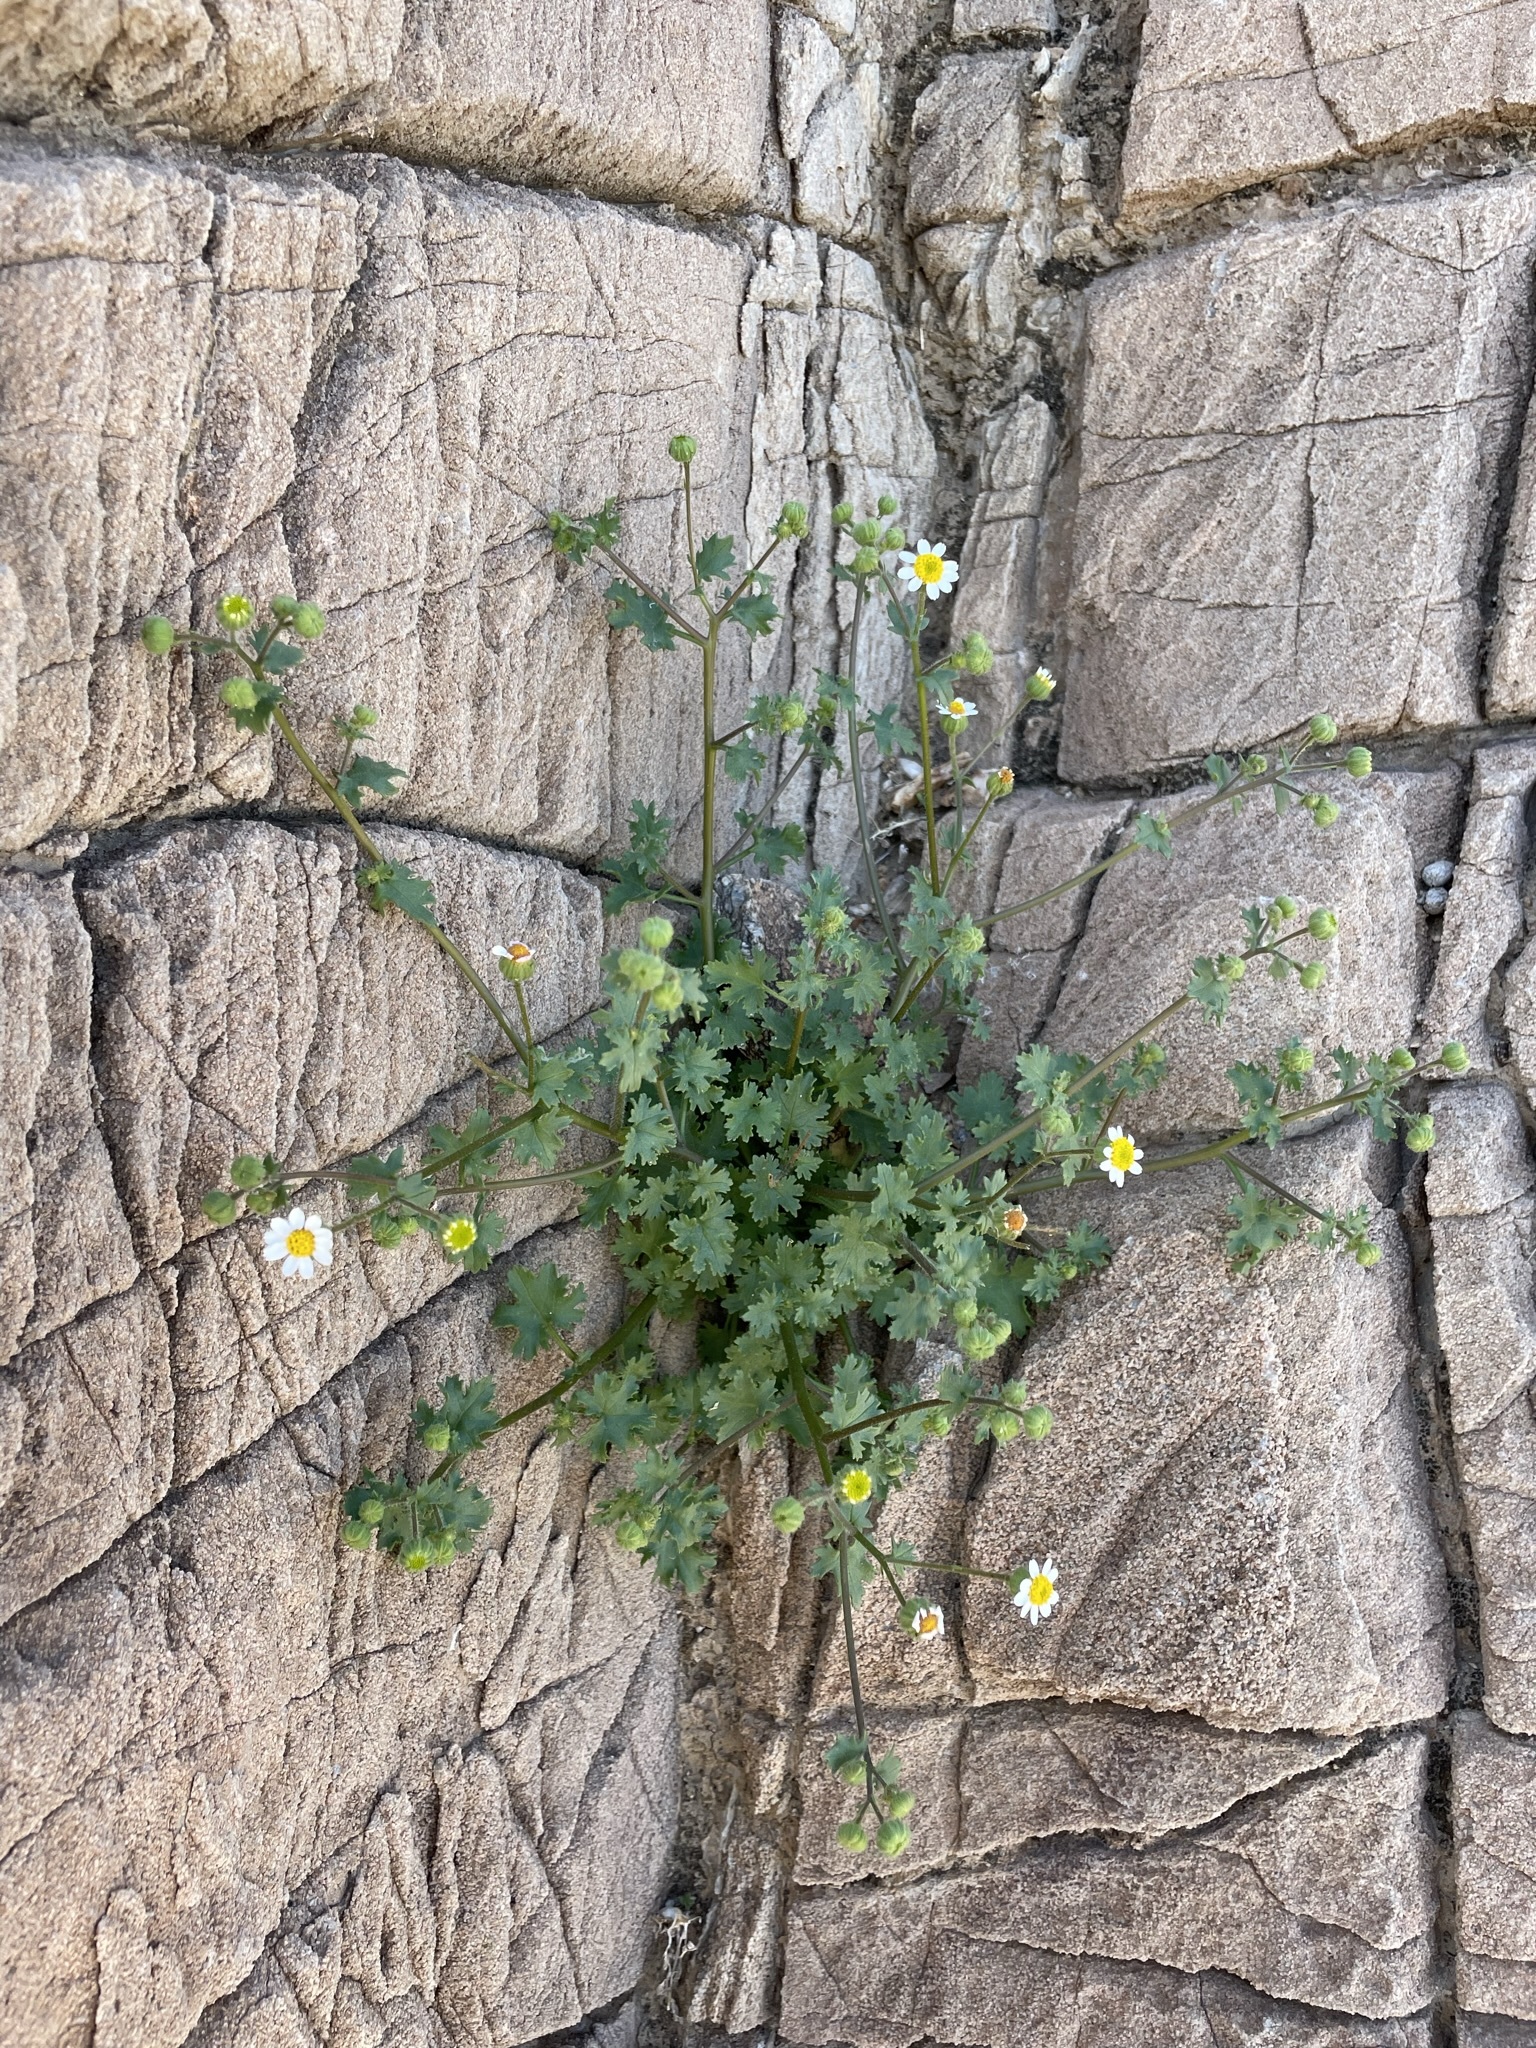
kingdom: Plantae
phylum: Tracheophyta
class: Magnoliopsida
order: Asterales
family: Asteraceae
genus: Laphamia
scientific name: Laphamia emoryi
